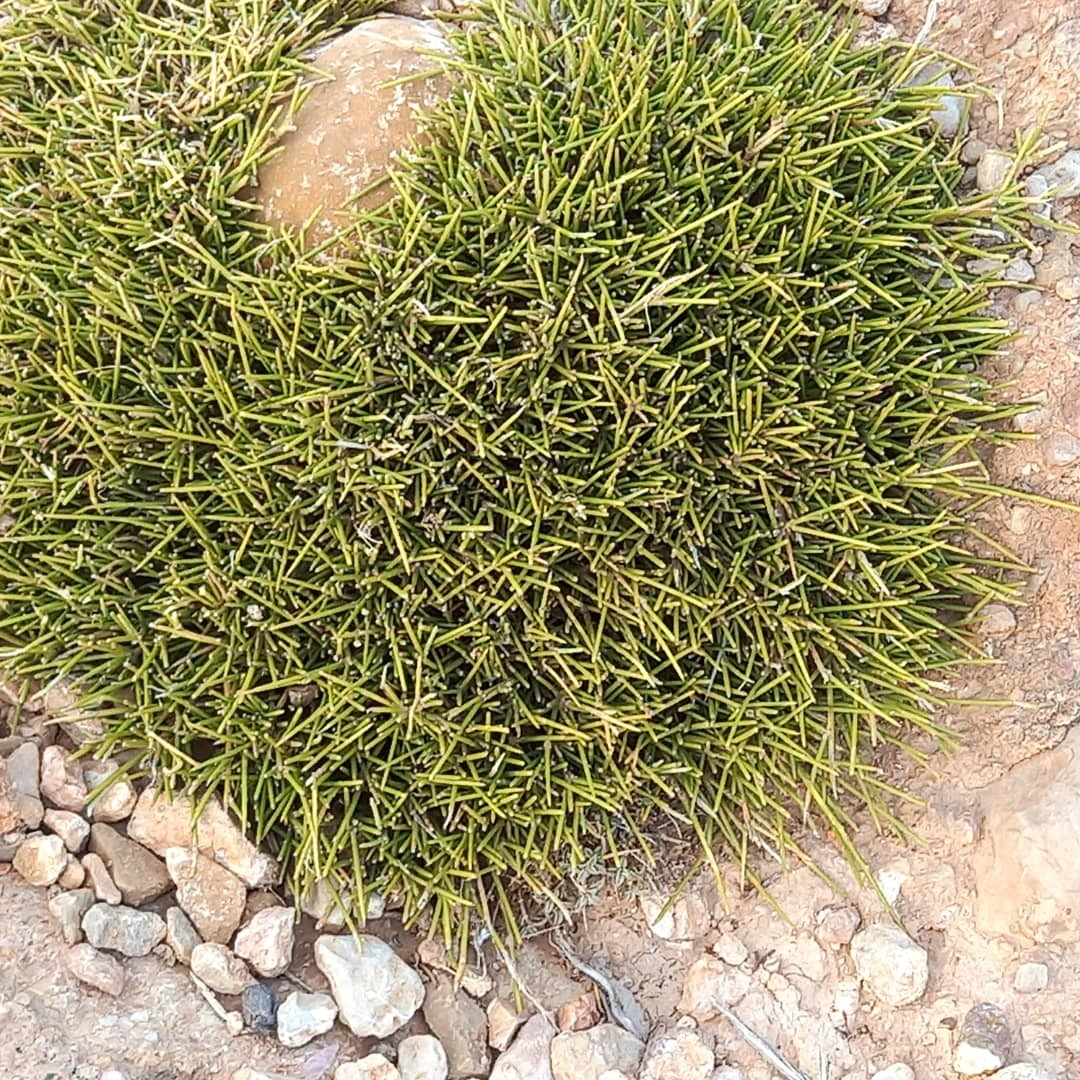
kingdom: Plantae
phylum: Tracheophyta
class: Magnoliopsida
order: Fabales
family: Fabaceae
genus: Erinacea
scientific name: Erinacea anthyllis
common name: Hedgehog-broom
